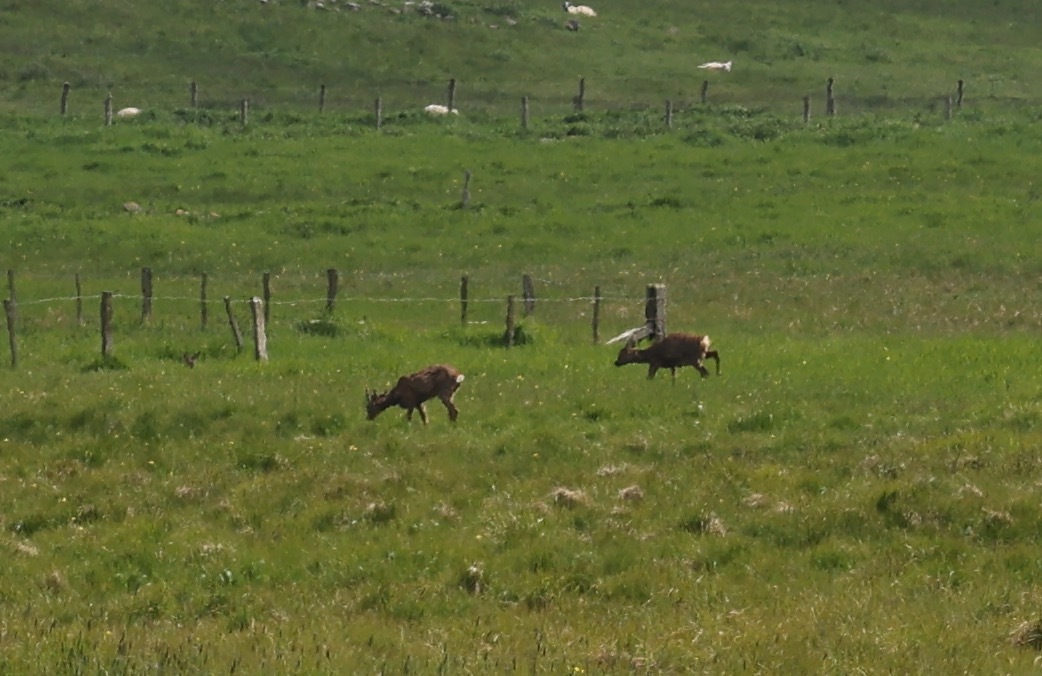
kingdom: Animalia
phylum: Chordata
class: Mammalia
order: Artiodactyla
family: Cervidae
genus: Capreolus
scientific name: Capreolus capreolus
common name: Western roe deer
